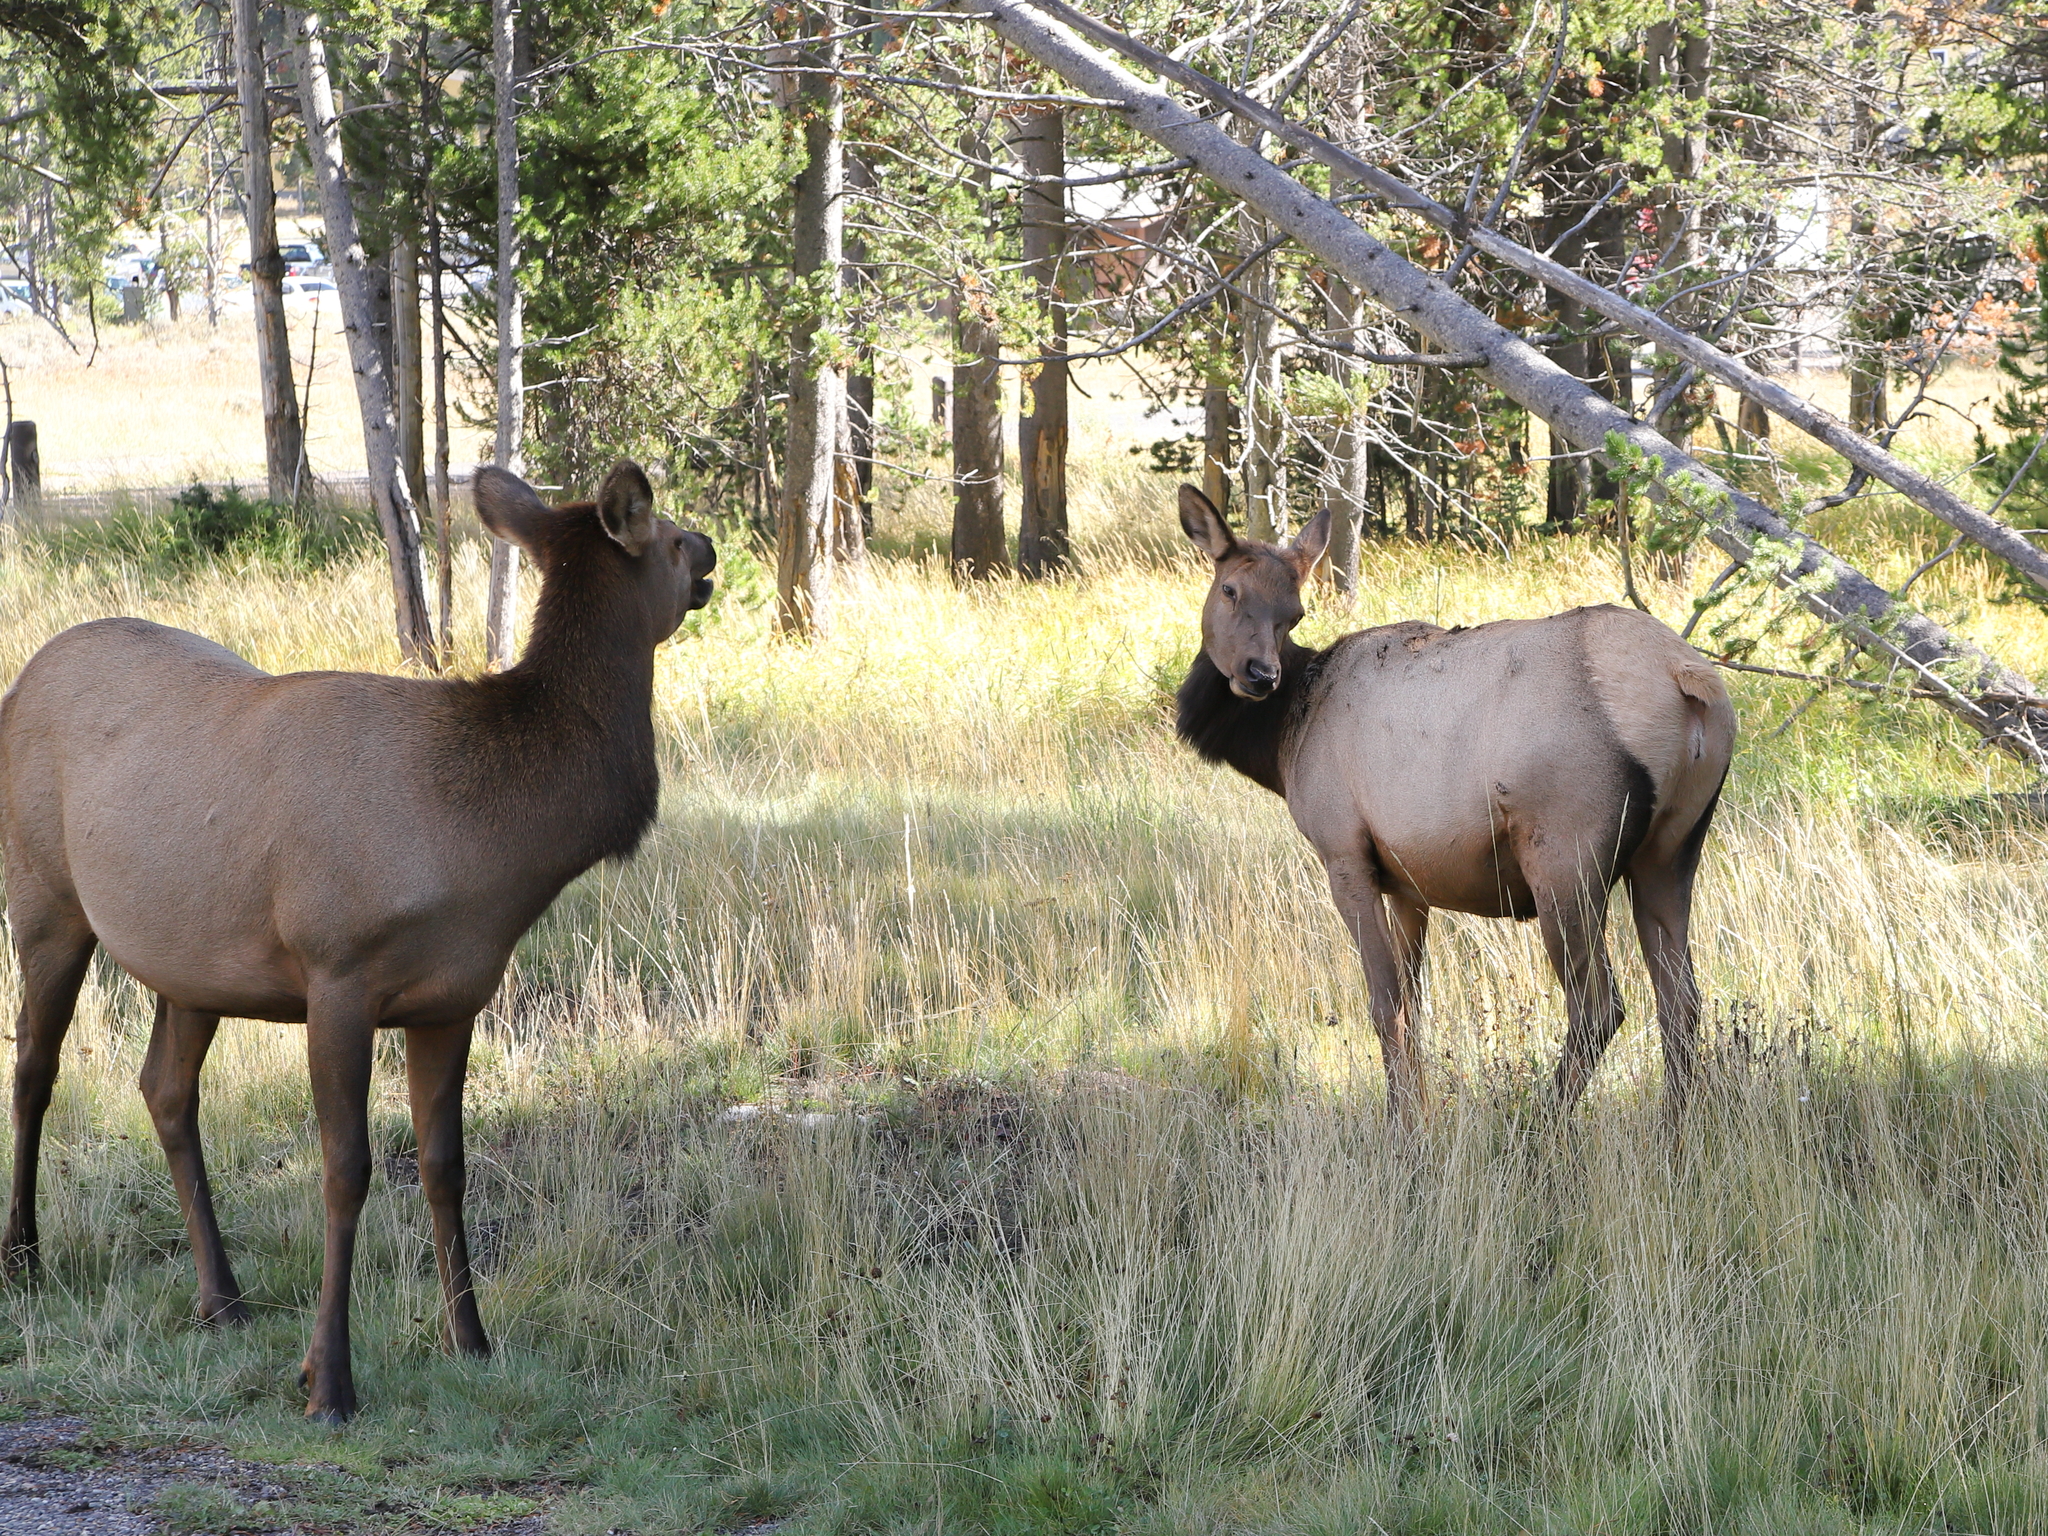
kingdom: Animalia
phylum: Chordata
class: Mammalia
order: Artiodactyla
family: Cervidae
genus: Cervus
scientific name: Cervus elaphus
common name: Red deer
